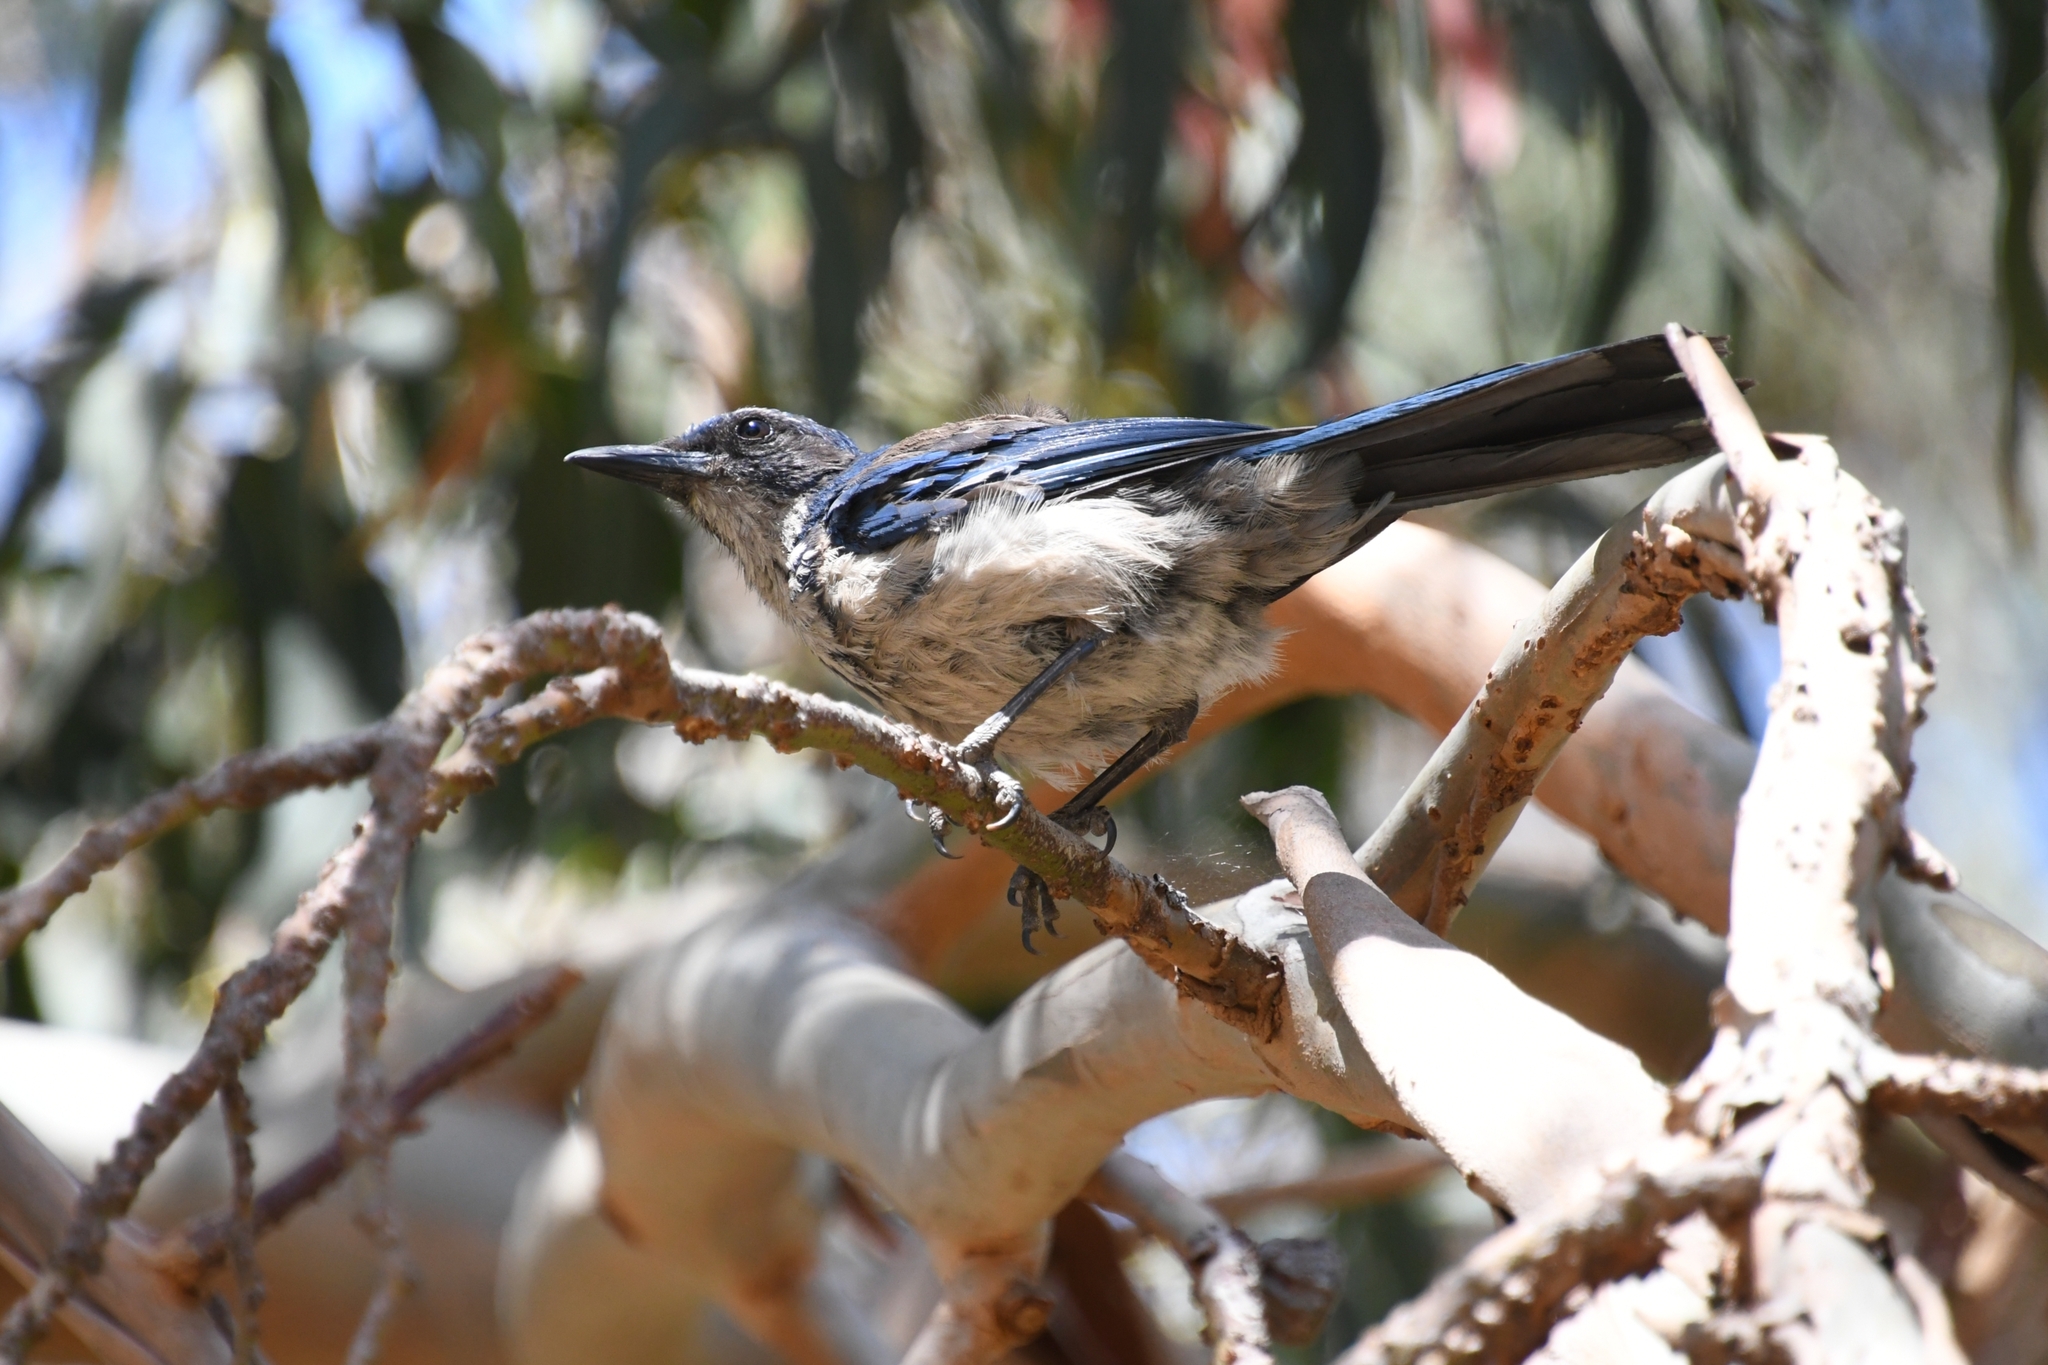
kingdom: Animalia
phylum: Chordata
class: Aves
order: Passeriformes
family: Corvidae
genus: Aphelocoma
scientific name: Aphelocoma insularis
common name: Island scrub-jay
